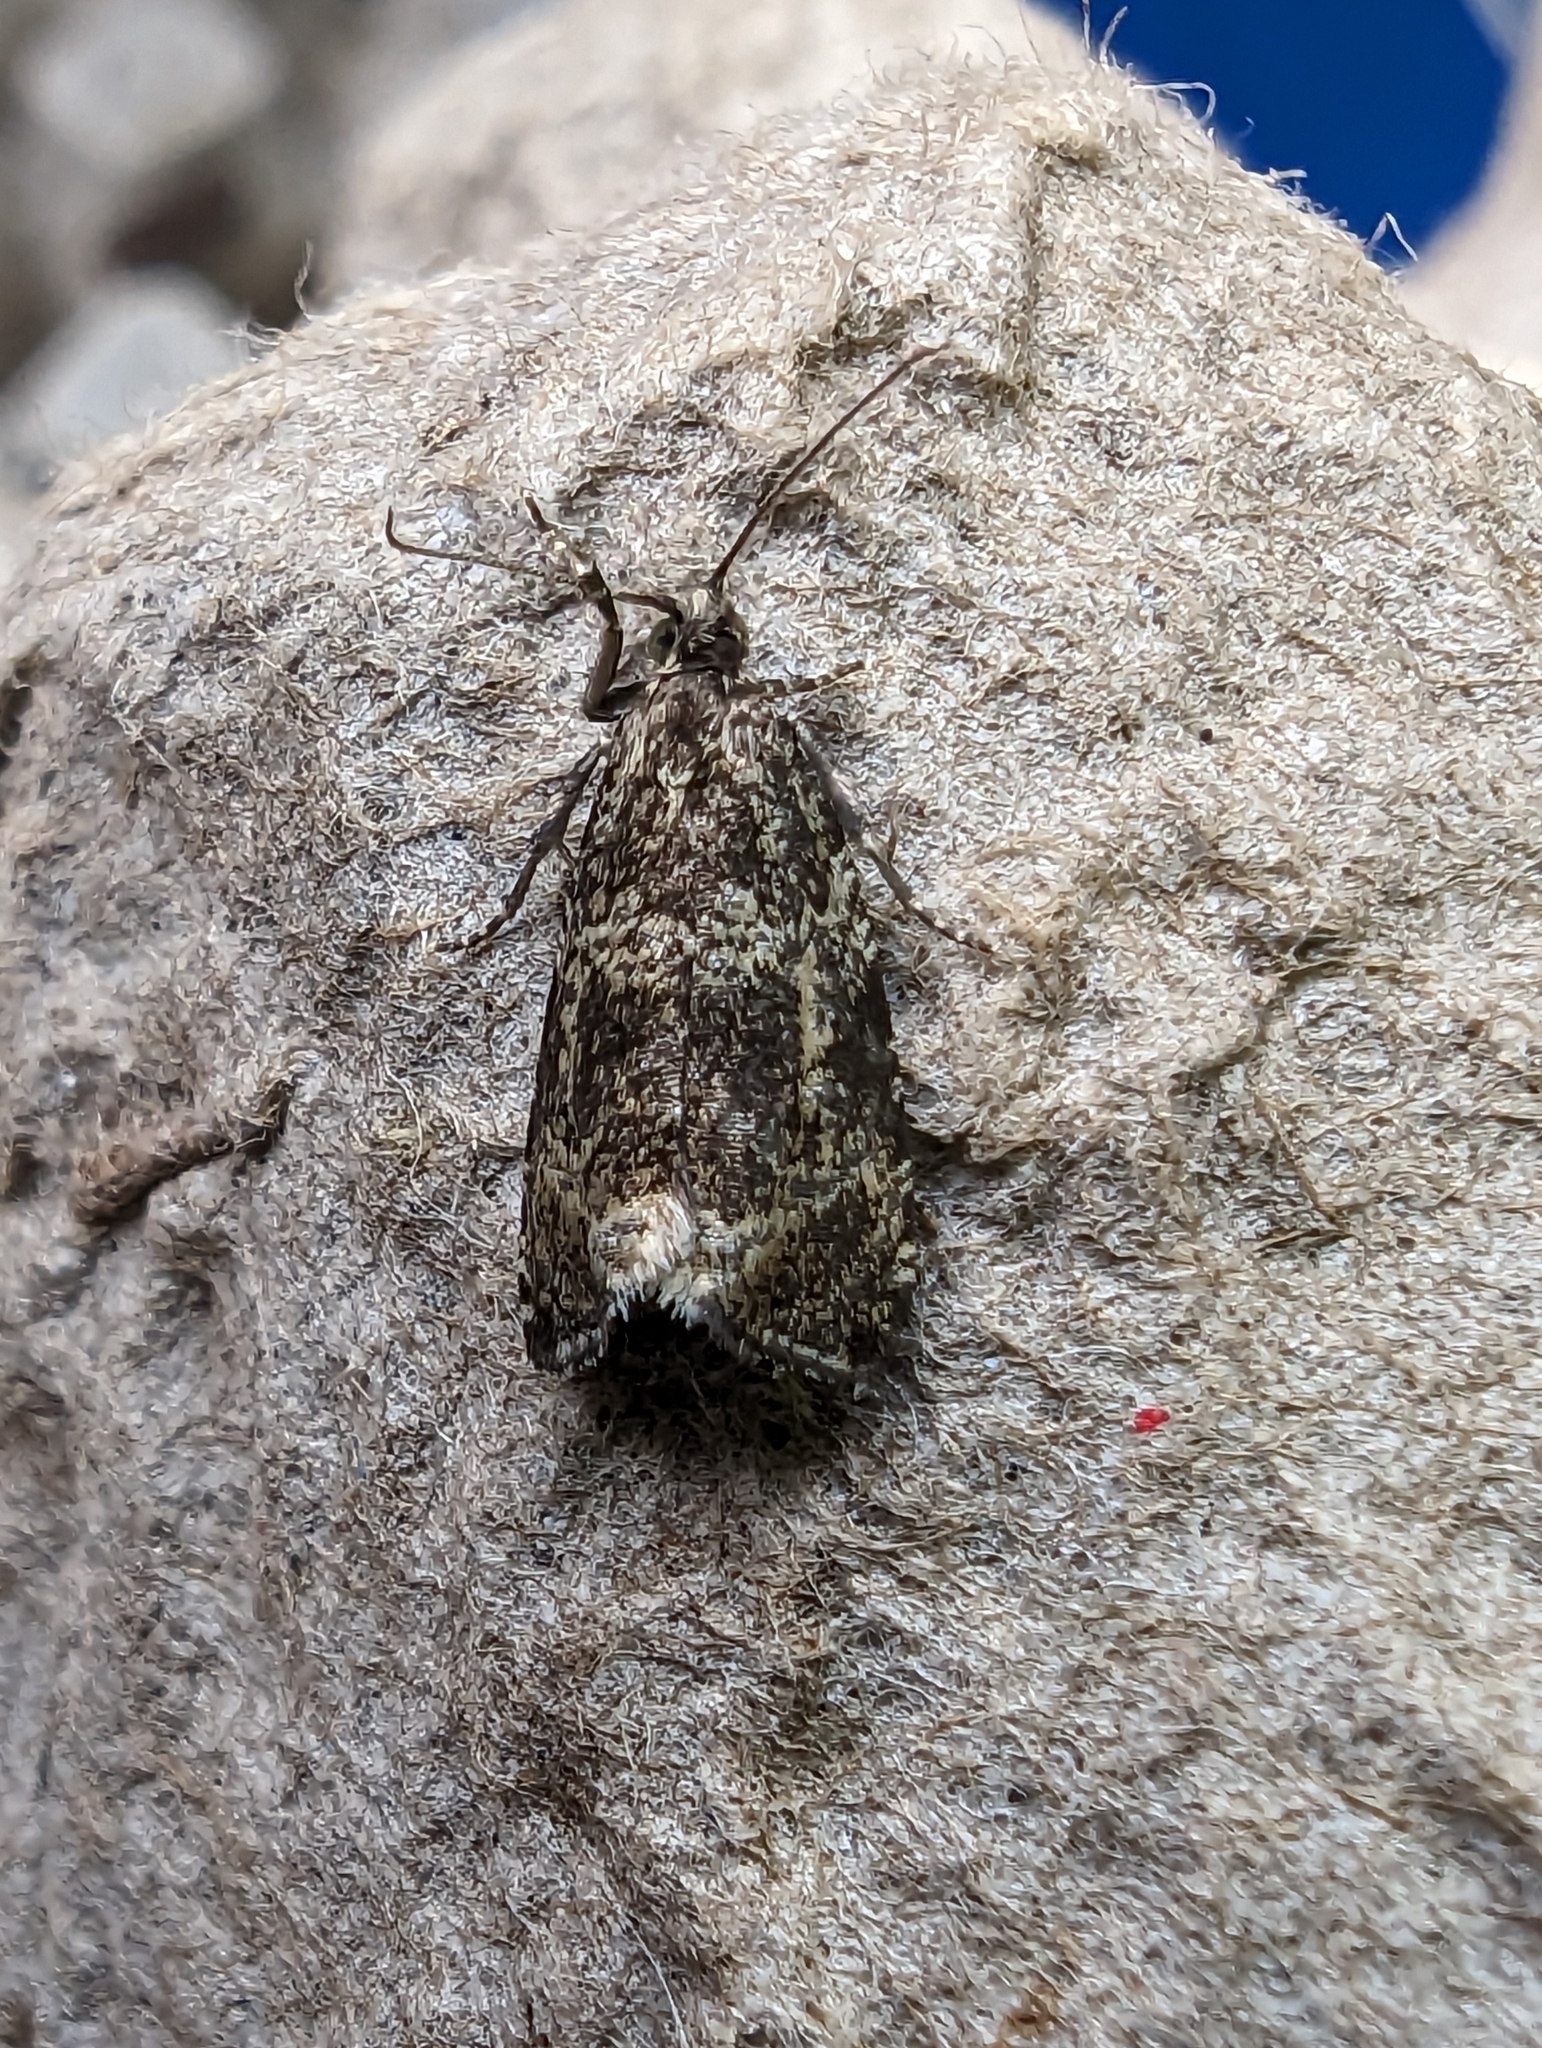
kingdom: Animalia
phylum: Arthropoda
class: Insecta
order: Lepidoptera
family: Tortricidae
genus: Syricoris
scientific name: Syricoris lacunana
